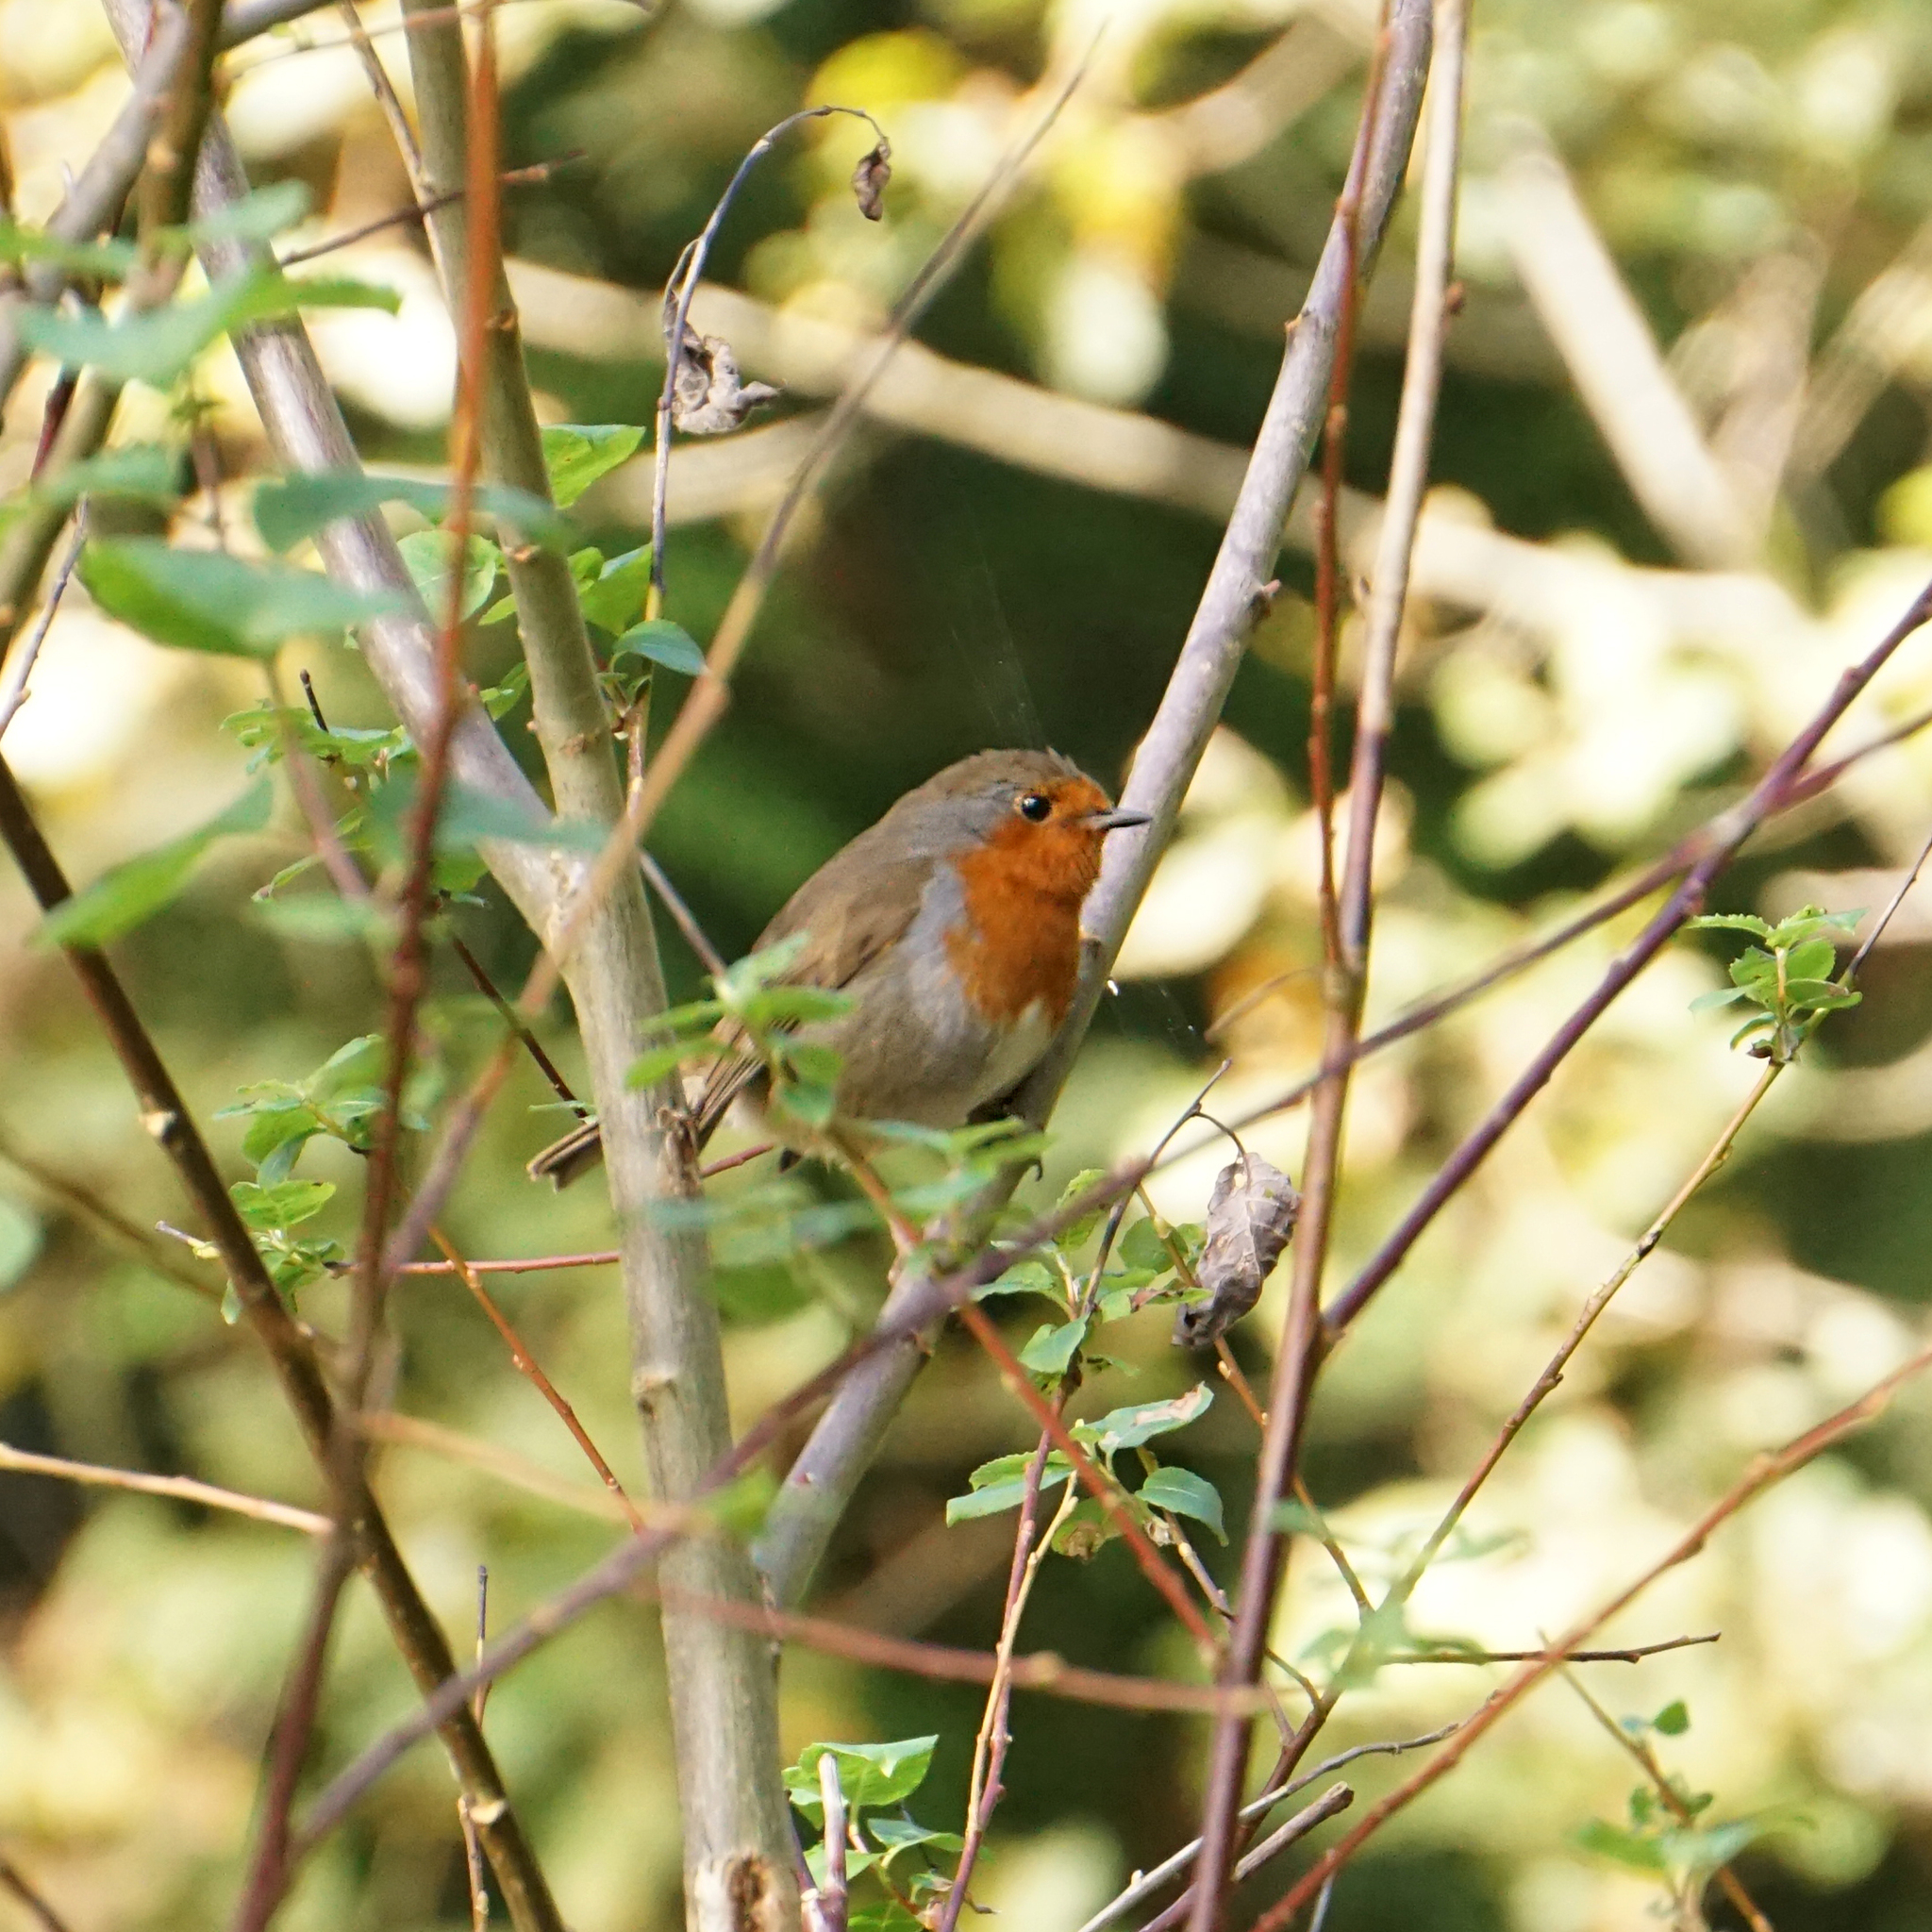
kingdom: Animalia
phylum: Chordata
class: Aves
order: Passeriformes
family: Muscicapidae
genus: Erithacus
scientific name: Erithacus rubecula
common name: European robin
